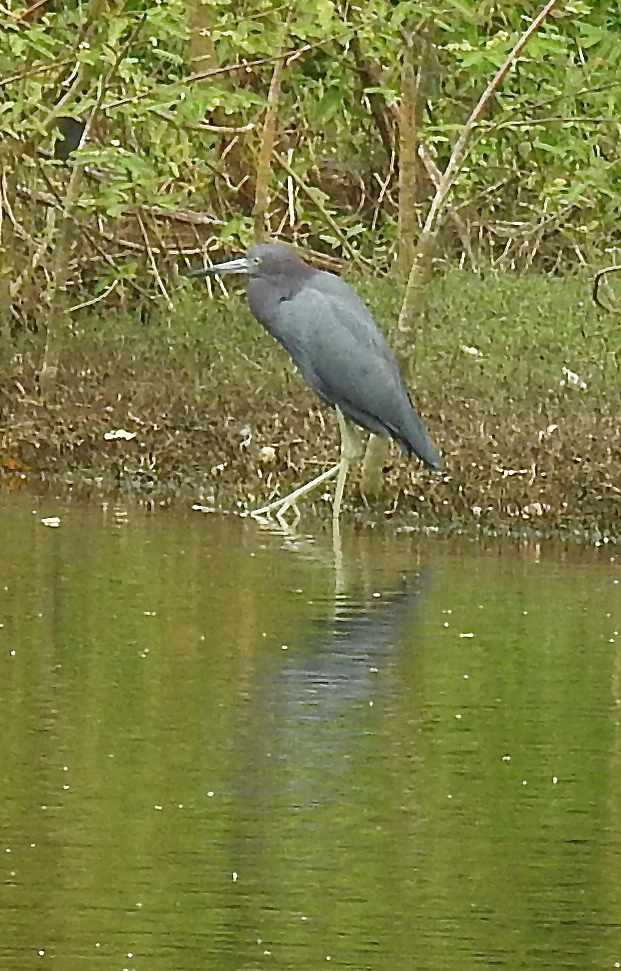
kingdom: Animalia
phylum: Chordata
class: Aves
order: Pelecaniformes
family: Ardeidae
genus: Egretta
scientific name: Egretta caerulea
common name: Little blue heron
